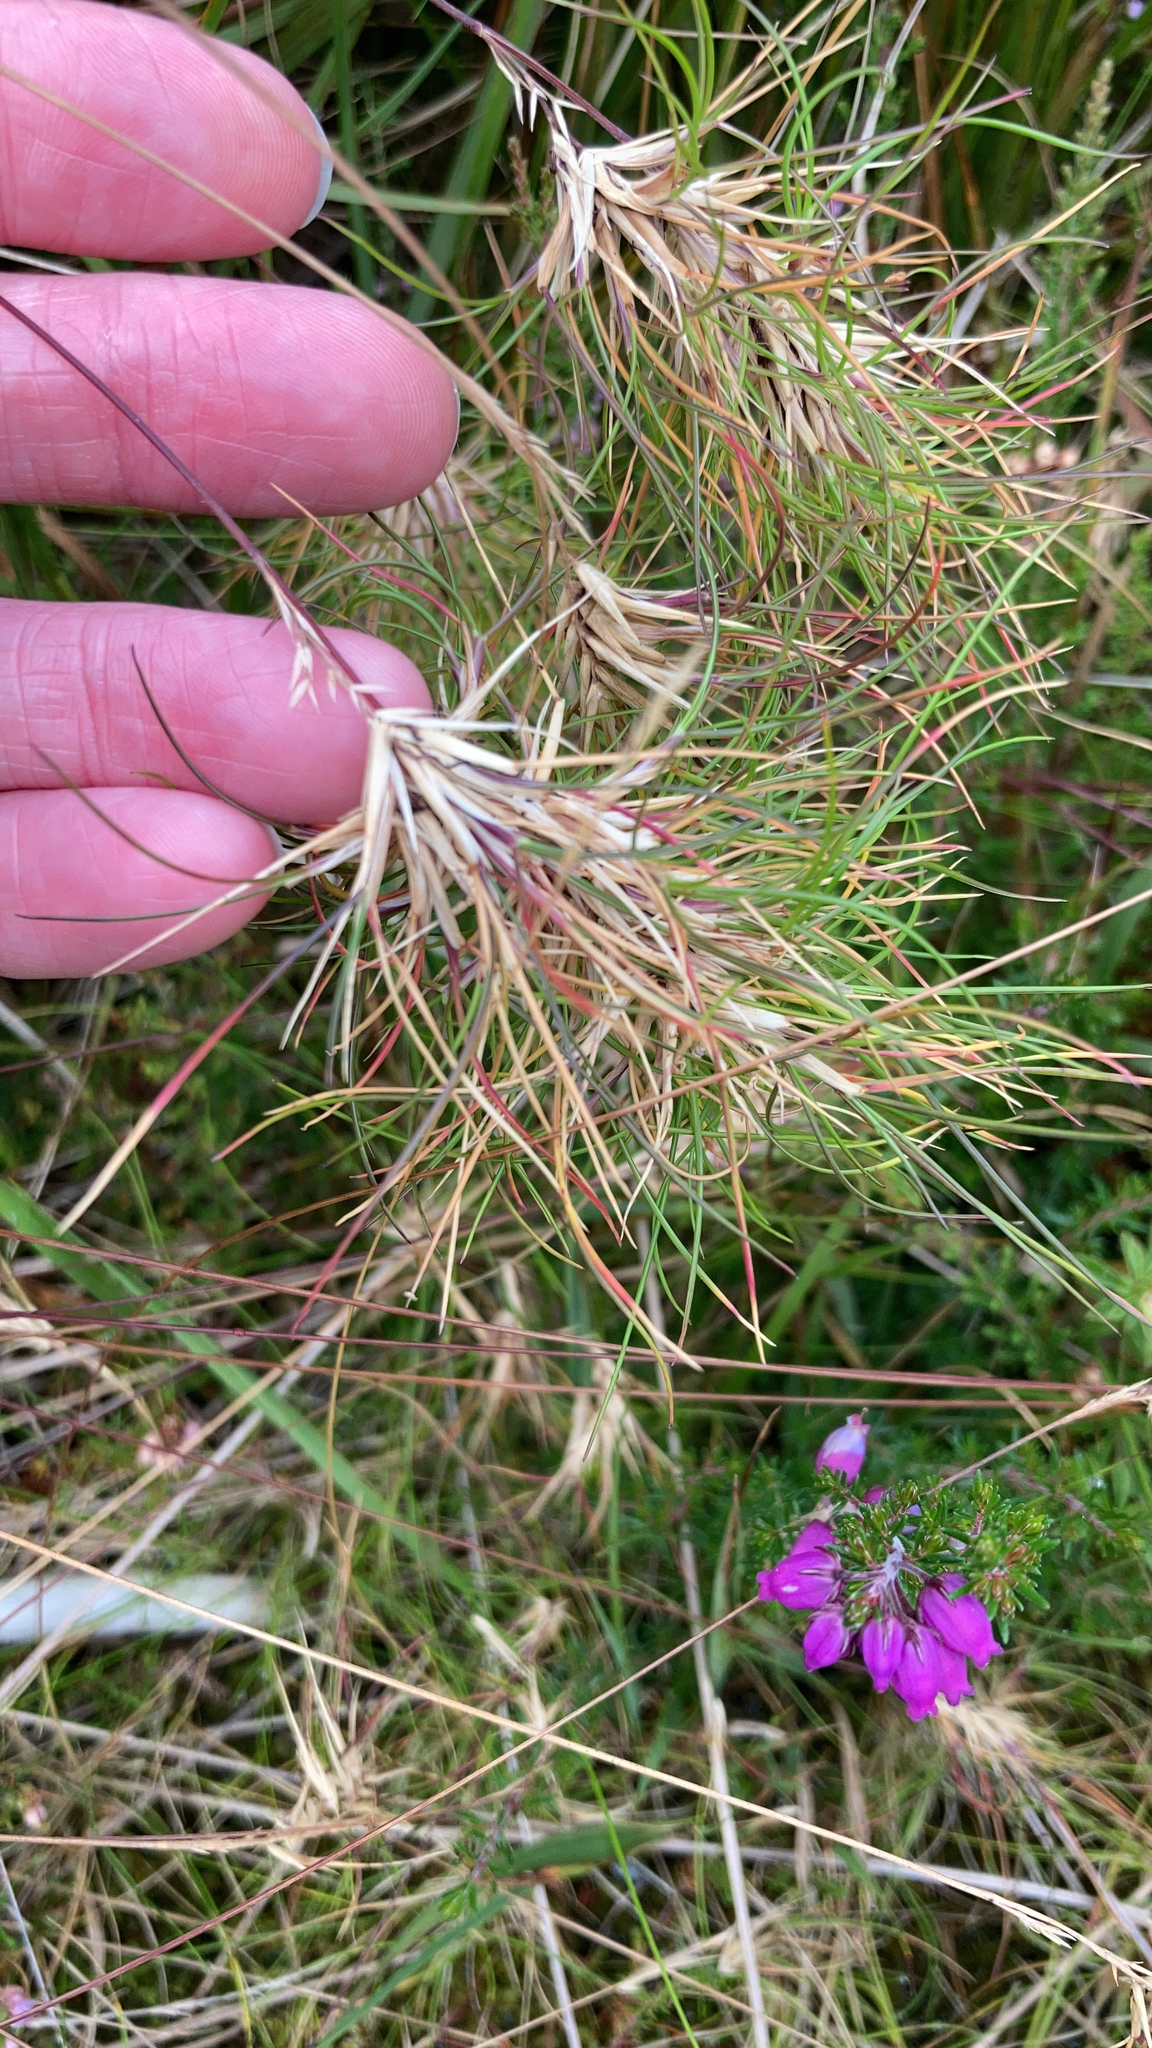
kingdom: Plantae
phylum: Tracheophyta
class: Liliopsida
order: Poales
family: Poaceae
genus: Festuca
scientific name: Festuca vivipara
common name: Viviparous sheep's-fescue
